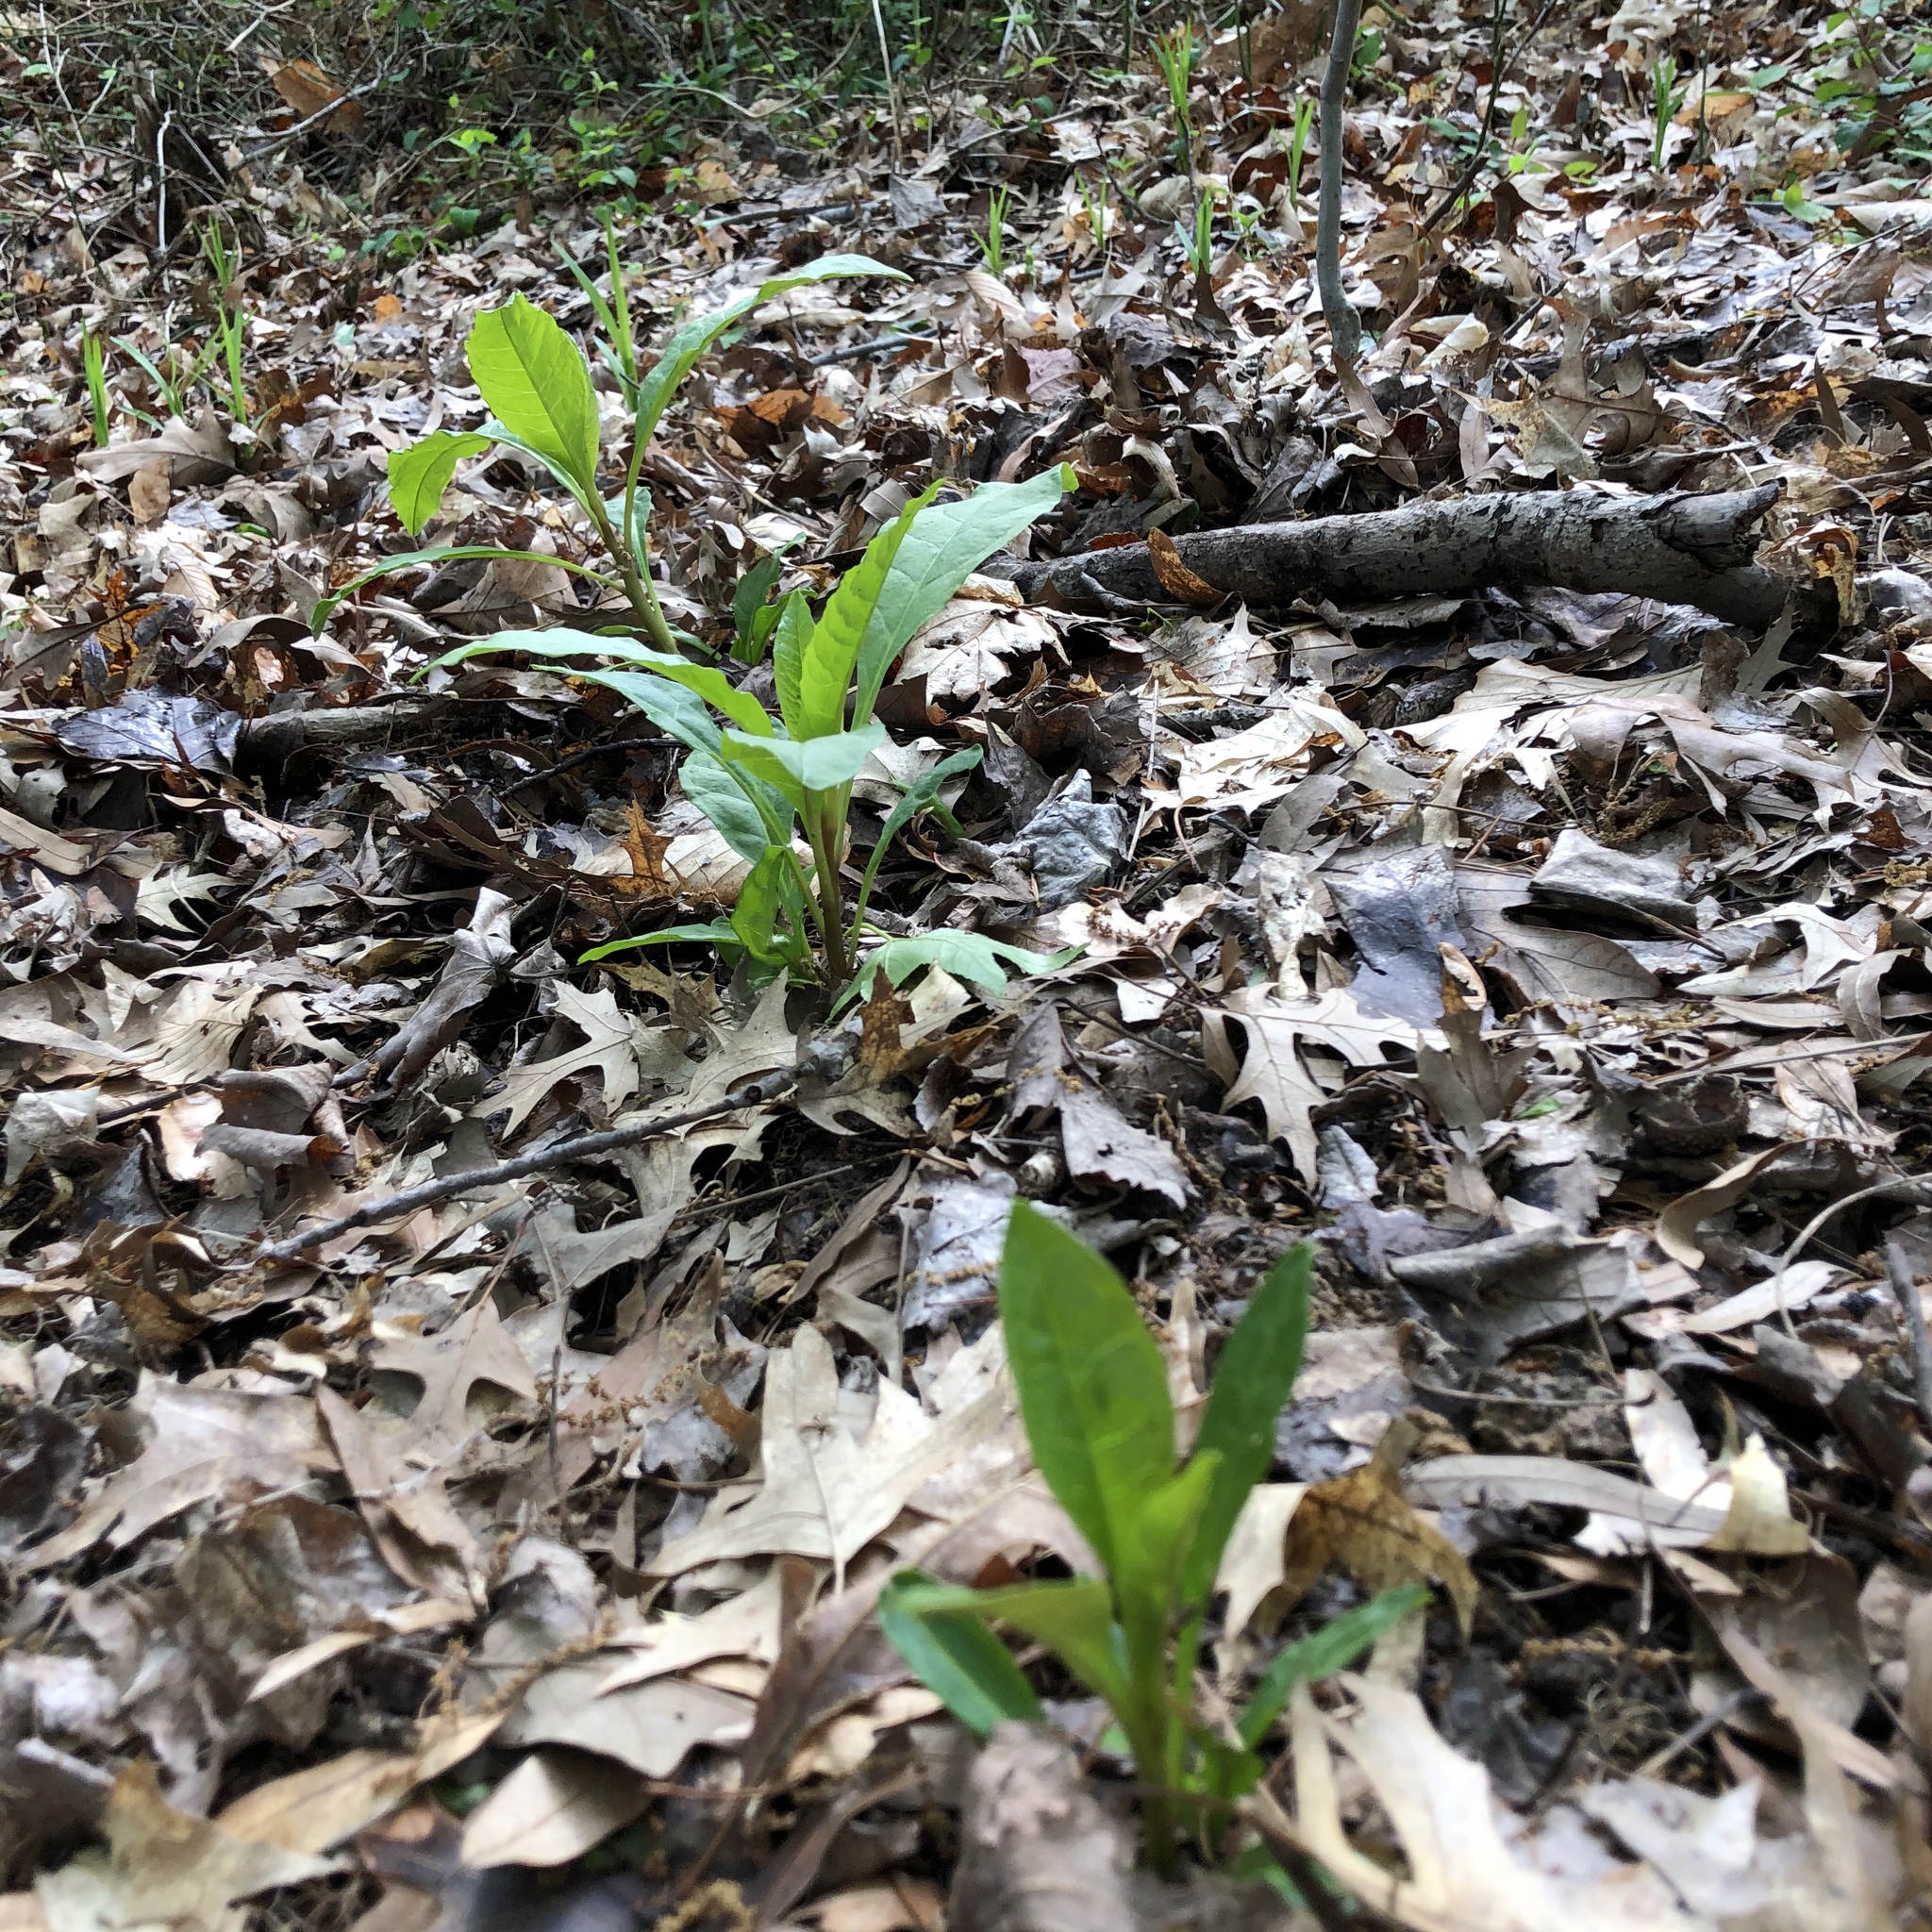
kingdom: Plantae
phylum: Tracheophyta
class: Magnoliopsida
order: Caryophyllales
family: Phytolaccaceae
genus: Phytolacca
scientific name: Phytolacca americana
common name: American pokeweed
